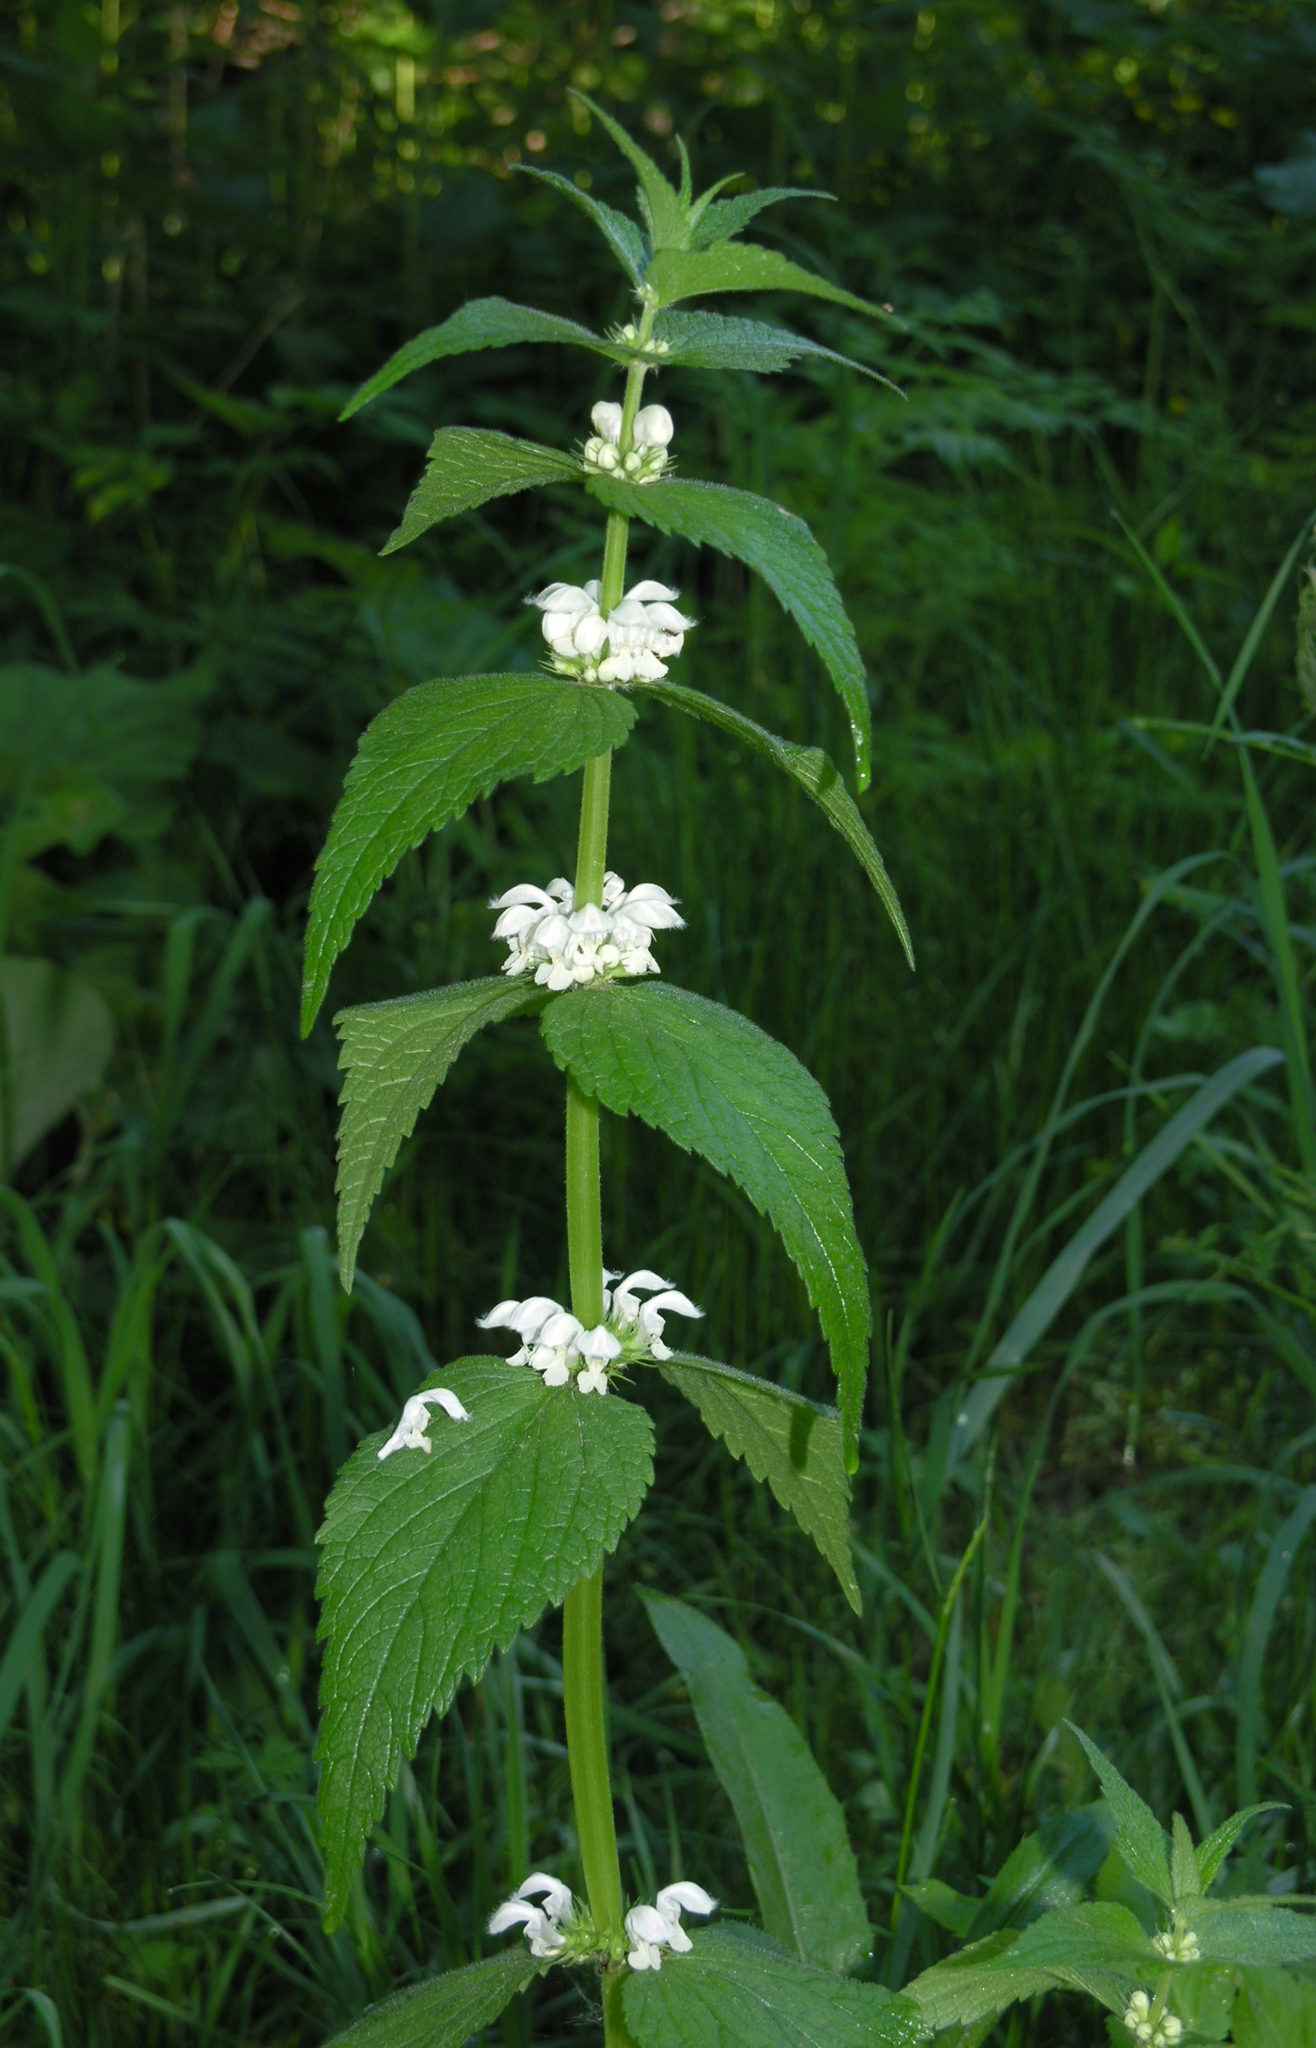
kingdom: Plantae
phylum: Tracheophyta
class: Magnoliopsida
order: Lamiales
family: Lamiaceae
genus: Lamium
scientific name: Lamium album
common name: White dead-nettle
